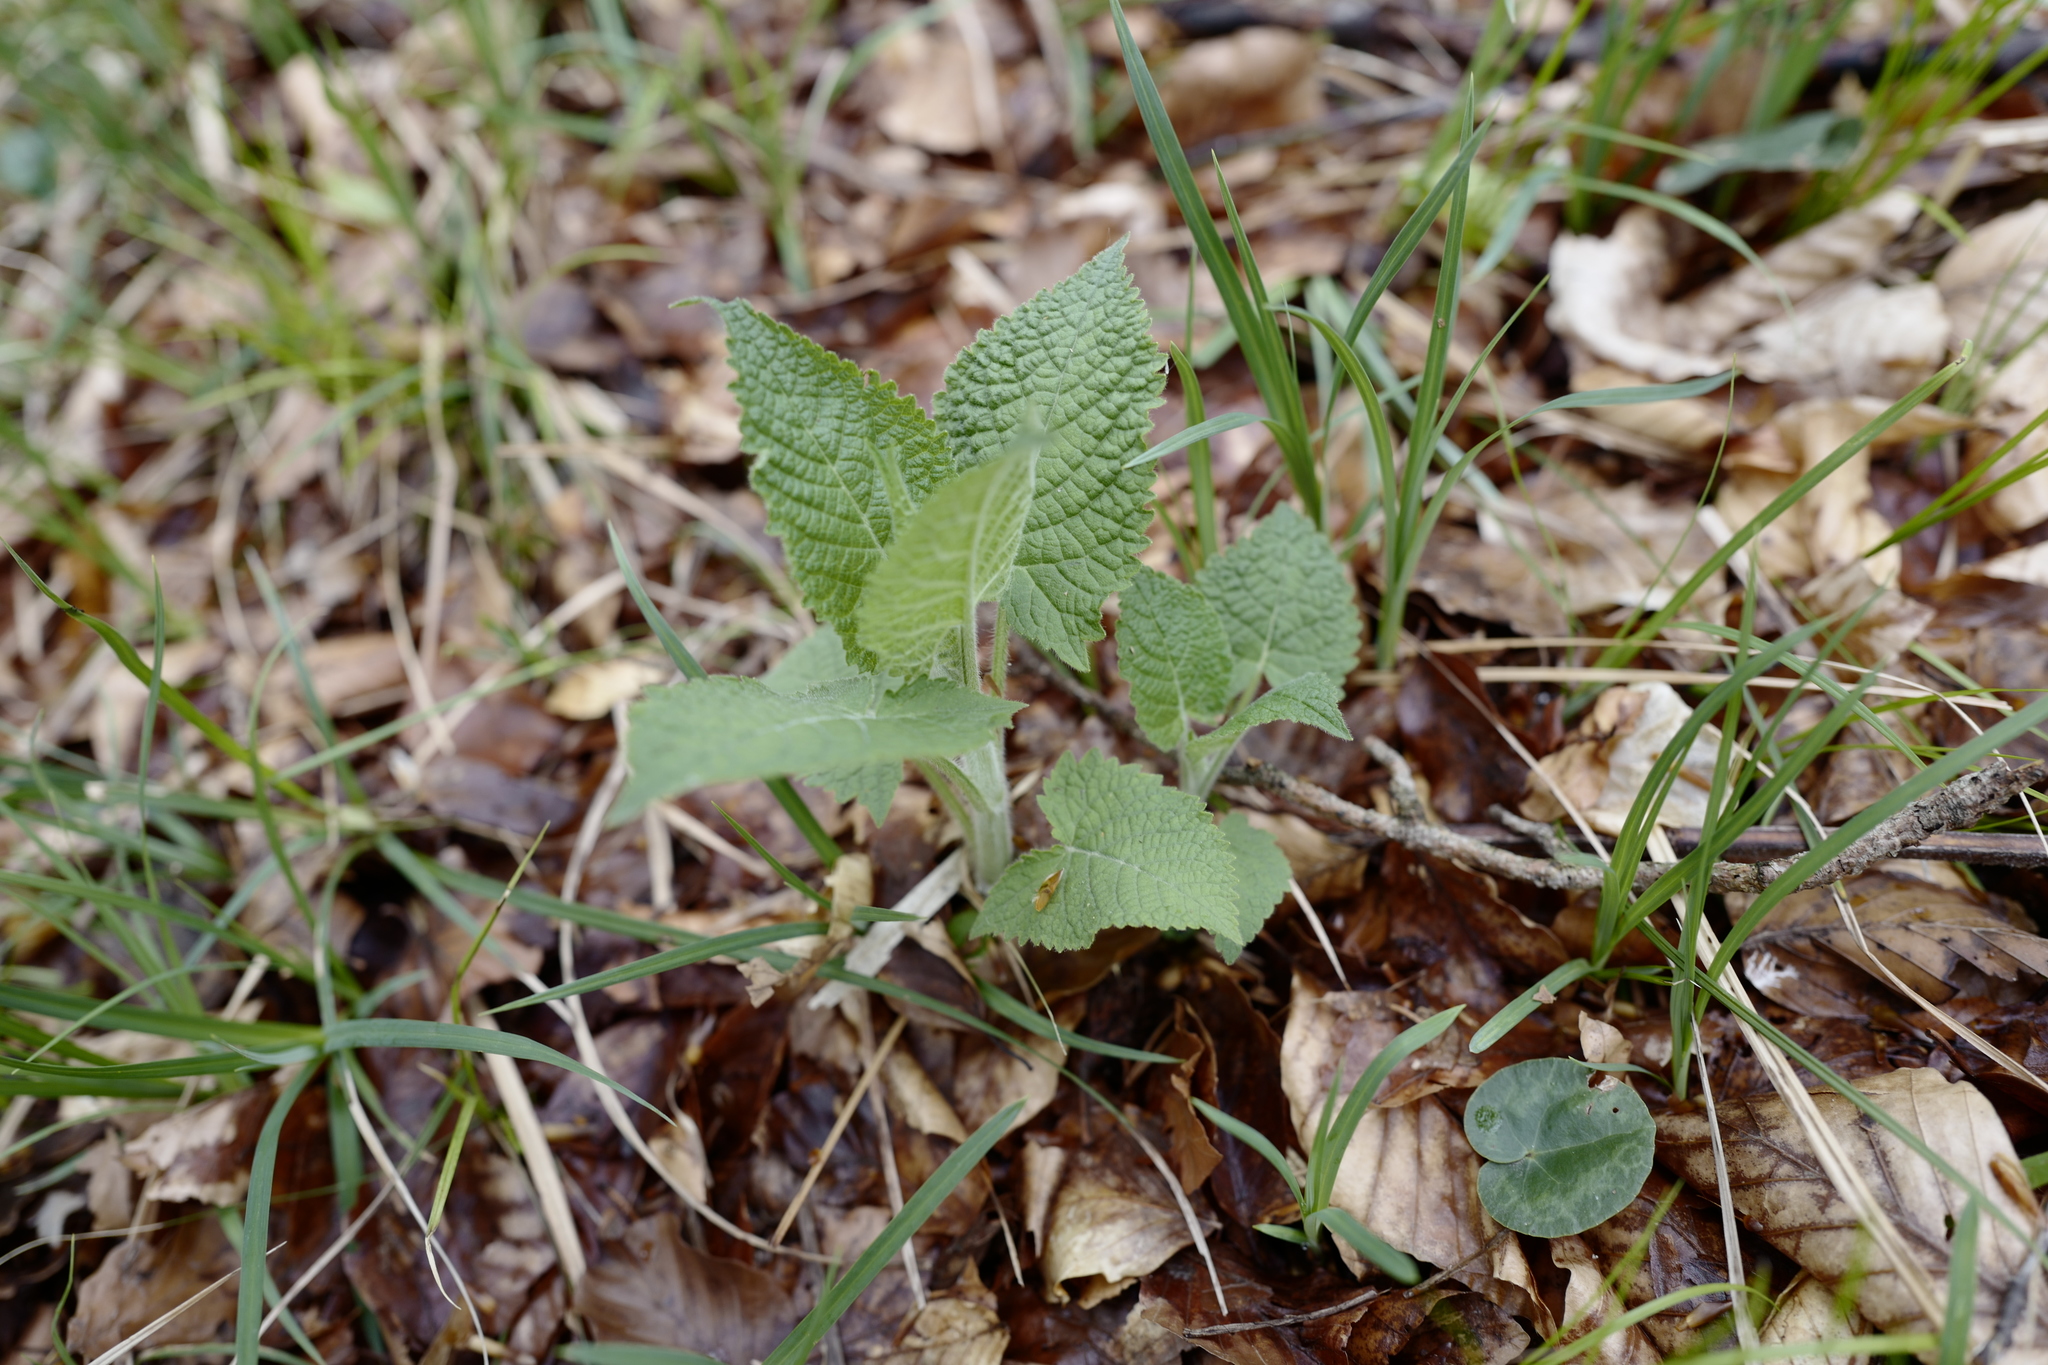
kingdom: Plantae
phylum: Tracheophyta
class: Magnoliopsida
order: Lamiales
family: Lamiaceae
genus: Salvia
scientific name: Salvia glutinosa
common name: Sticky clary
